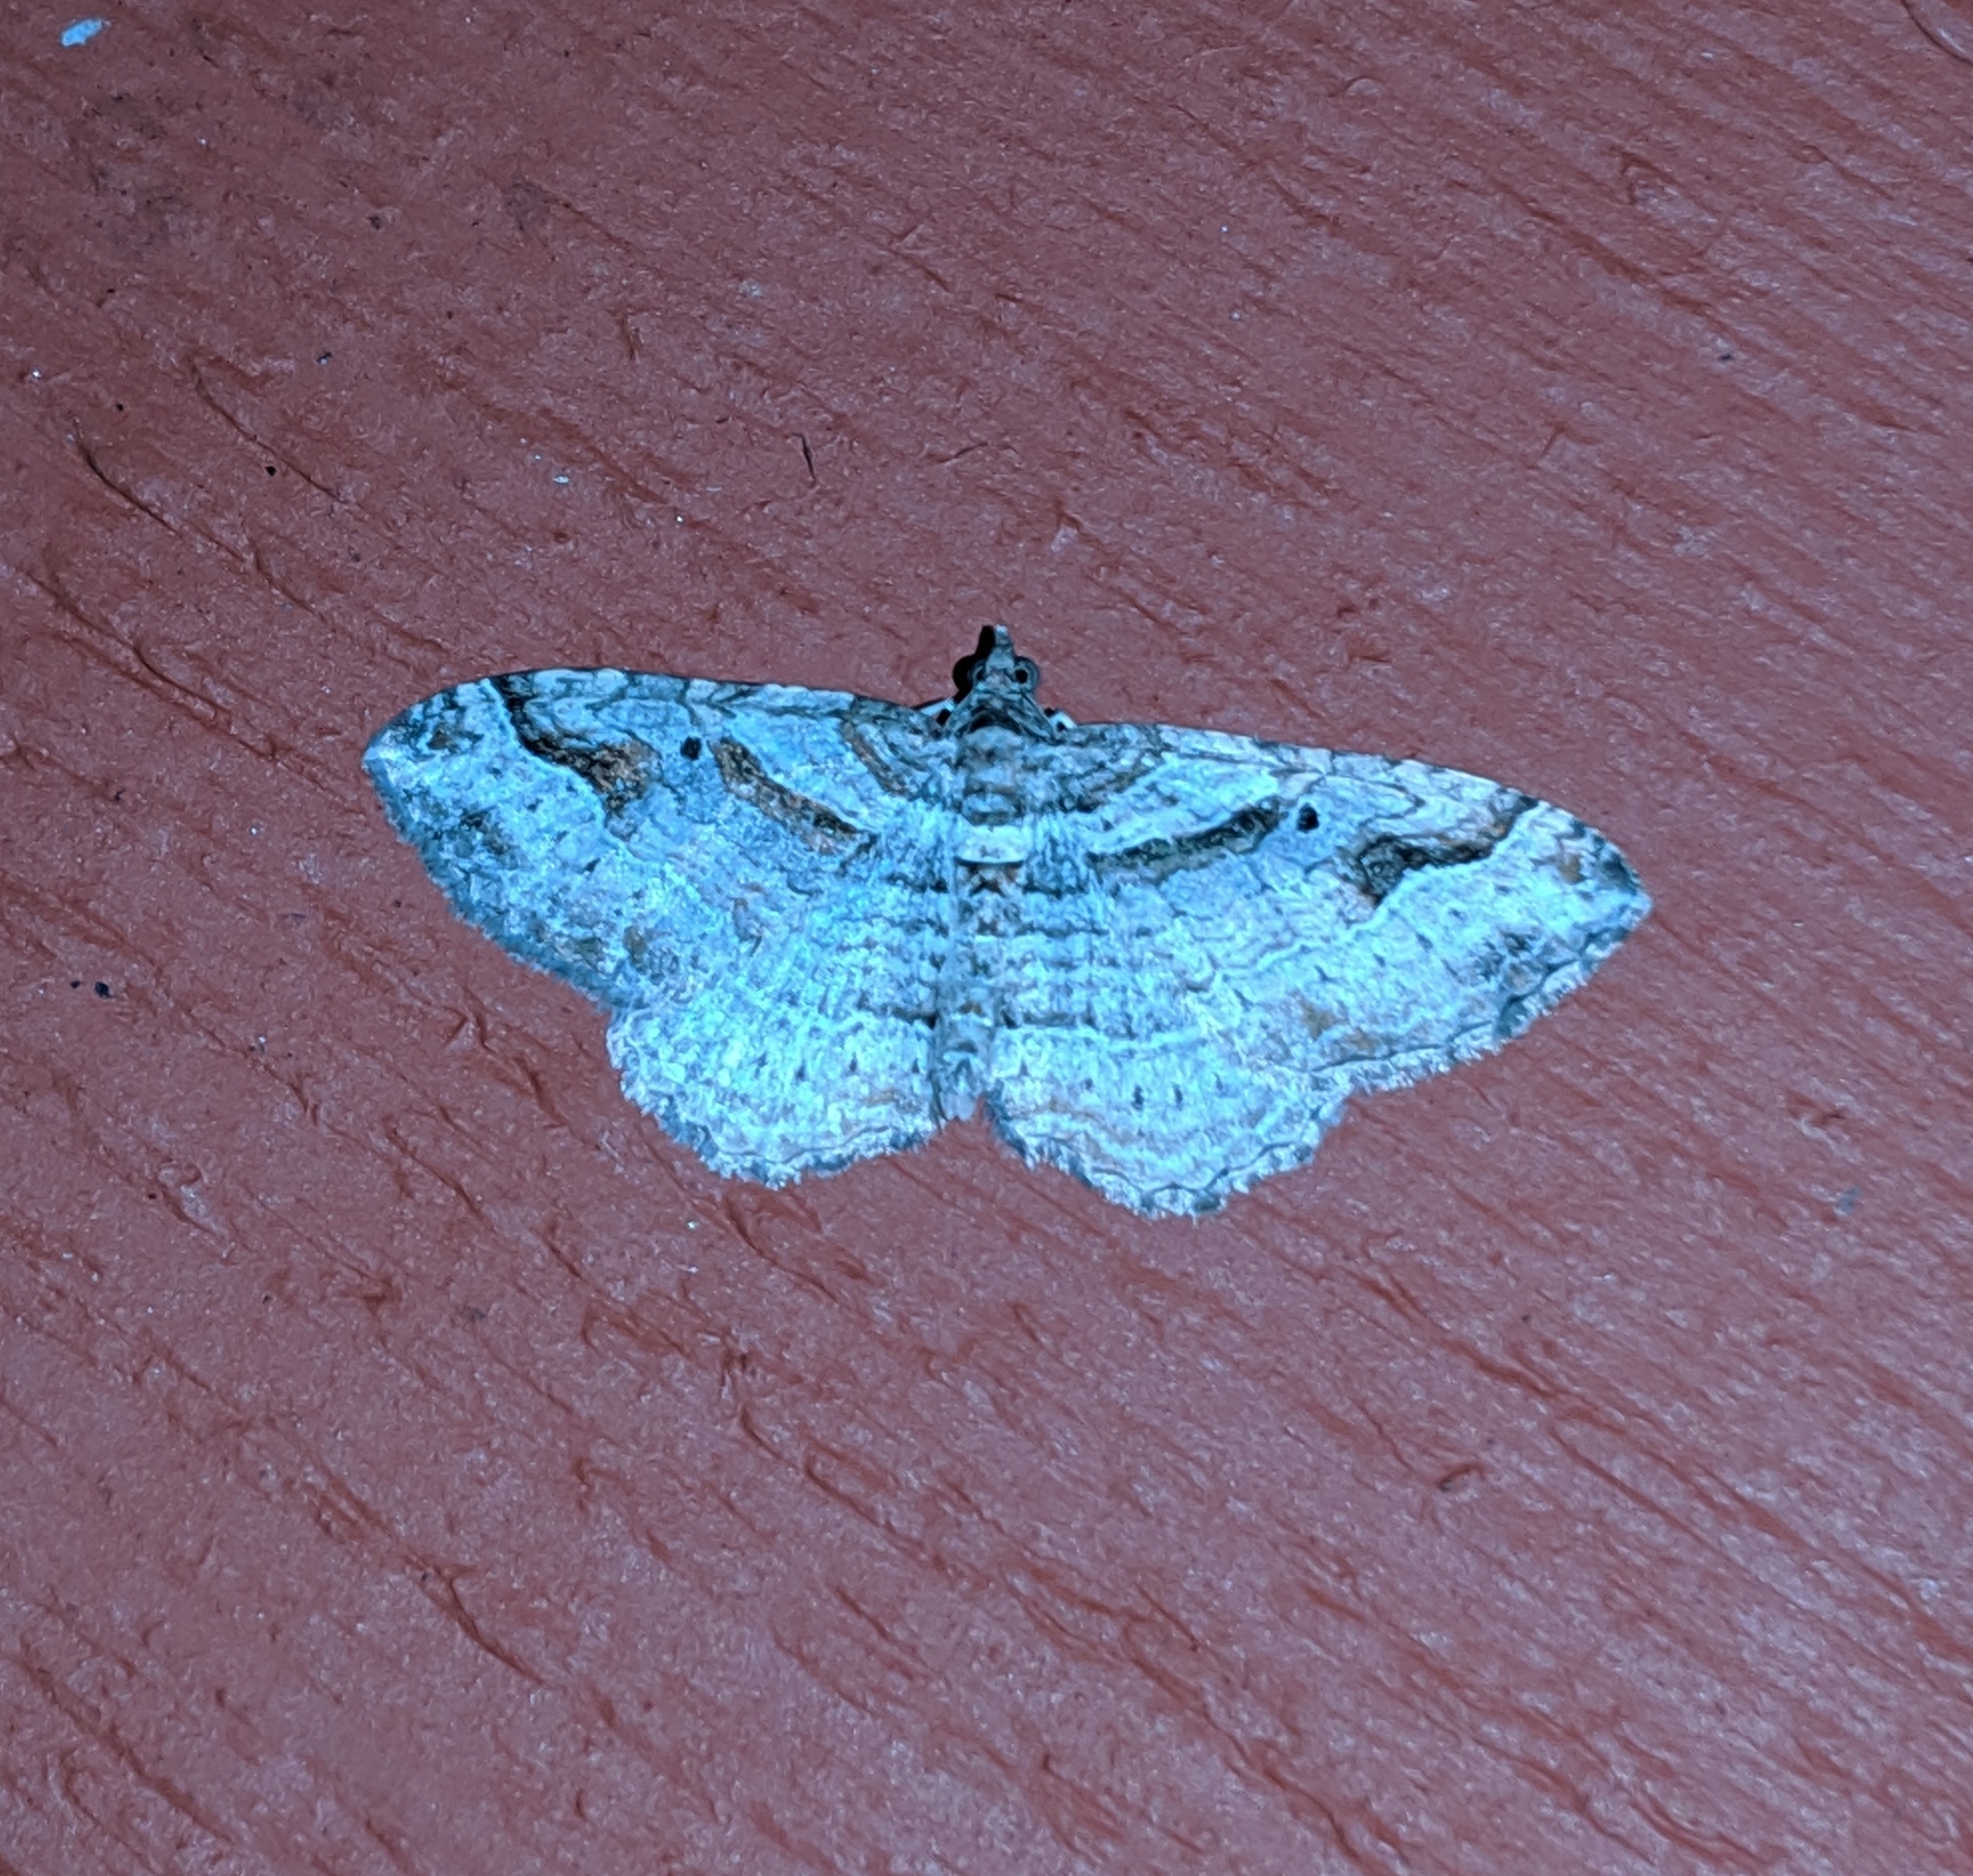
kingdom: Animalia
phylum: Arthropoda
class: Insecta
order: Lepidoptera
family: Geometridae
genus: Costaconvexa
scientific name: Costaconvexa centrostrigaria
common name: Bent-line carpet
